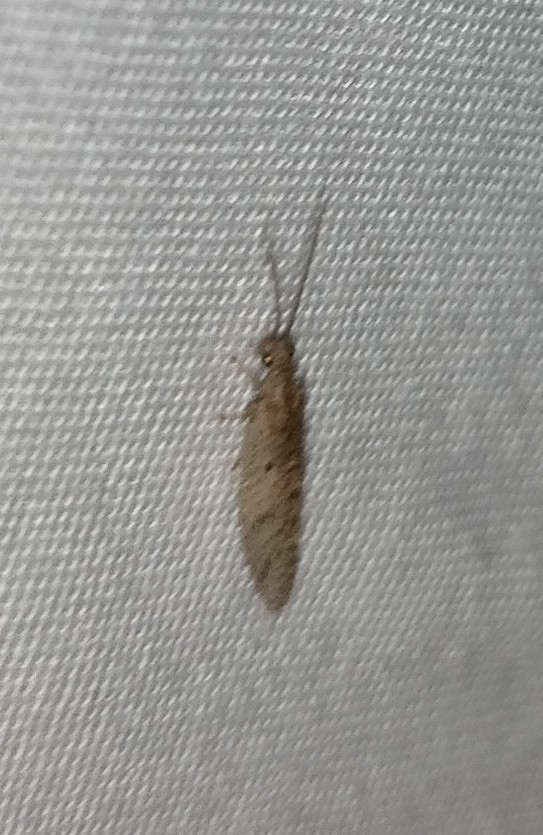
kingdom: Animalia
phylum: Arthropoda
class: Insecta
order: Neuroptera
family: Hemerobiidae
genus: Micromus
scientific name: Micromus tasmaniae
